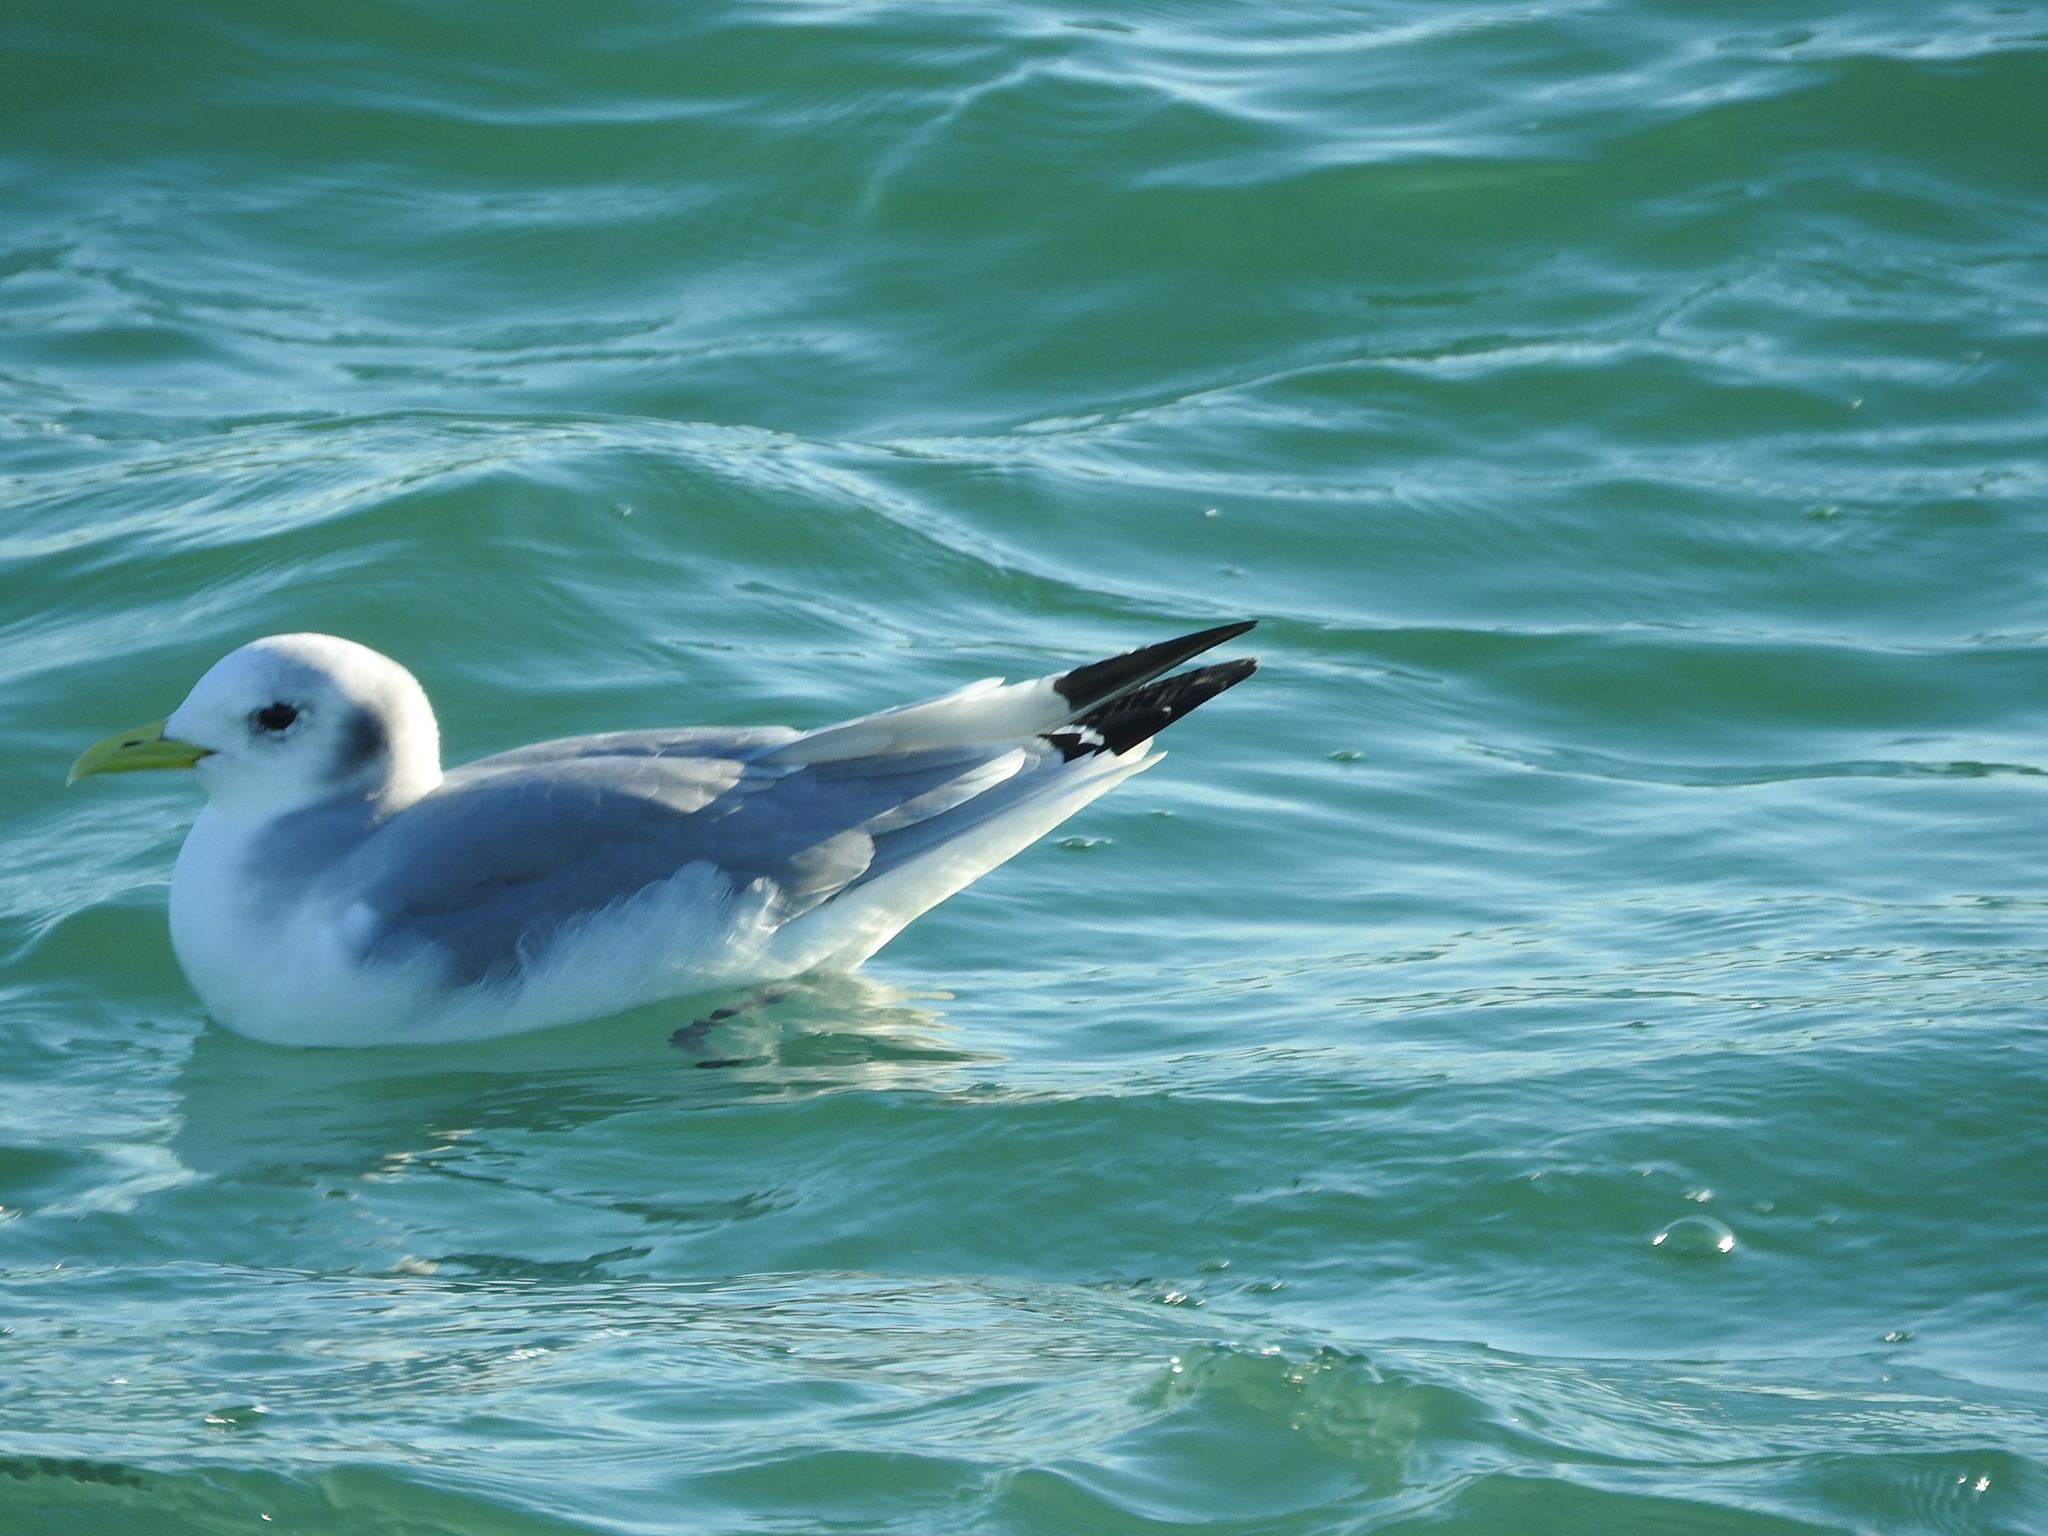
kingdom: Animalia
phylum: Chordata
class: Aves
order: Charadriiformes
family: Laridae
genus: Rissa
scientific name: Rissa tridactyla
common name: Black-legged kittiwake
